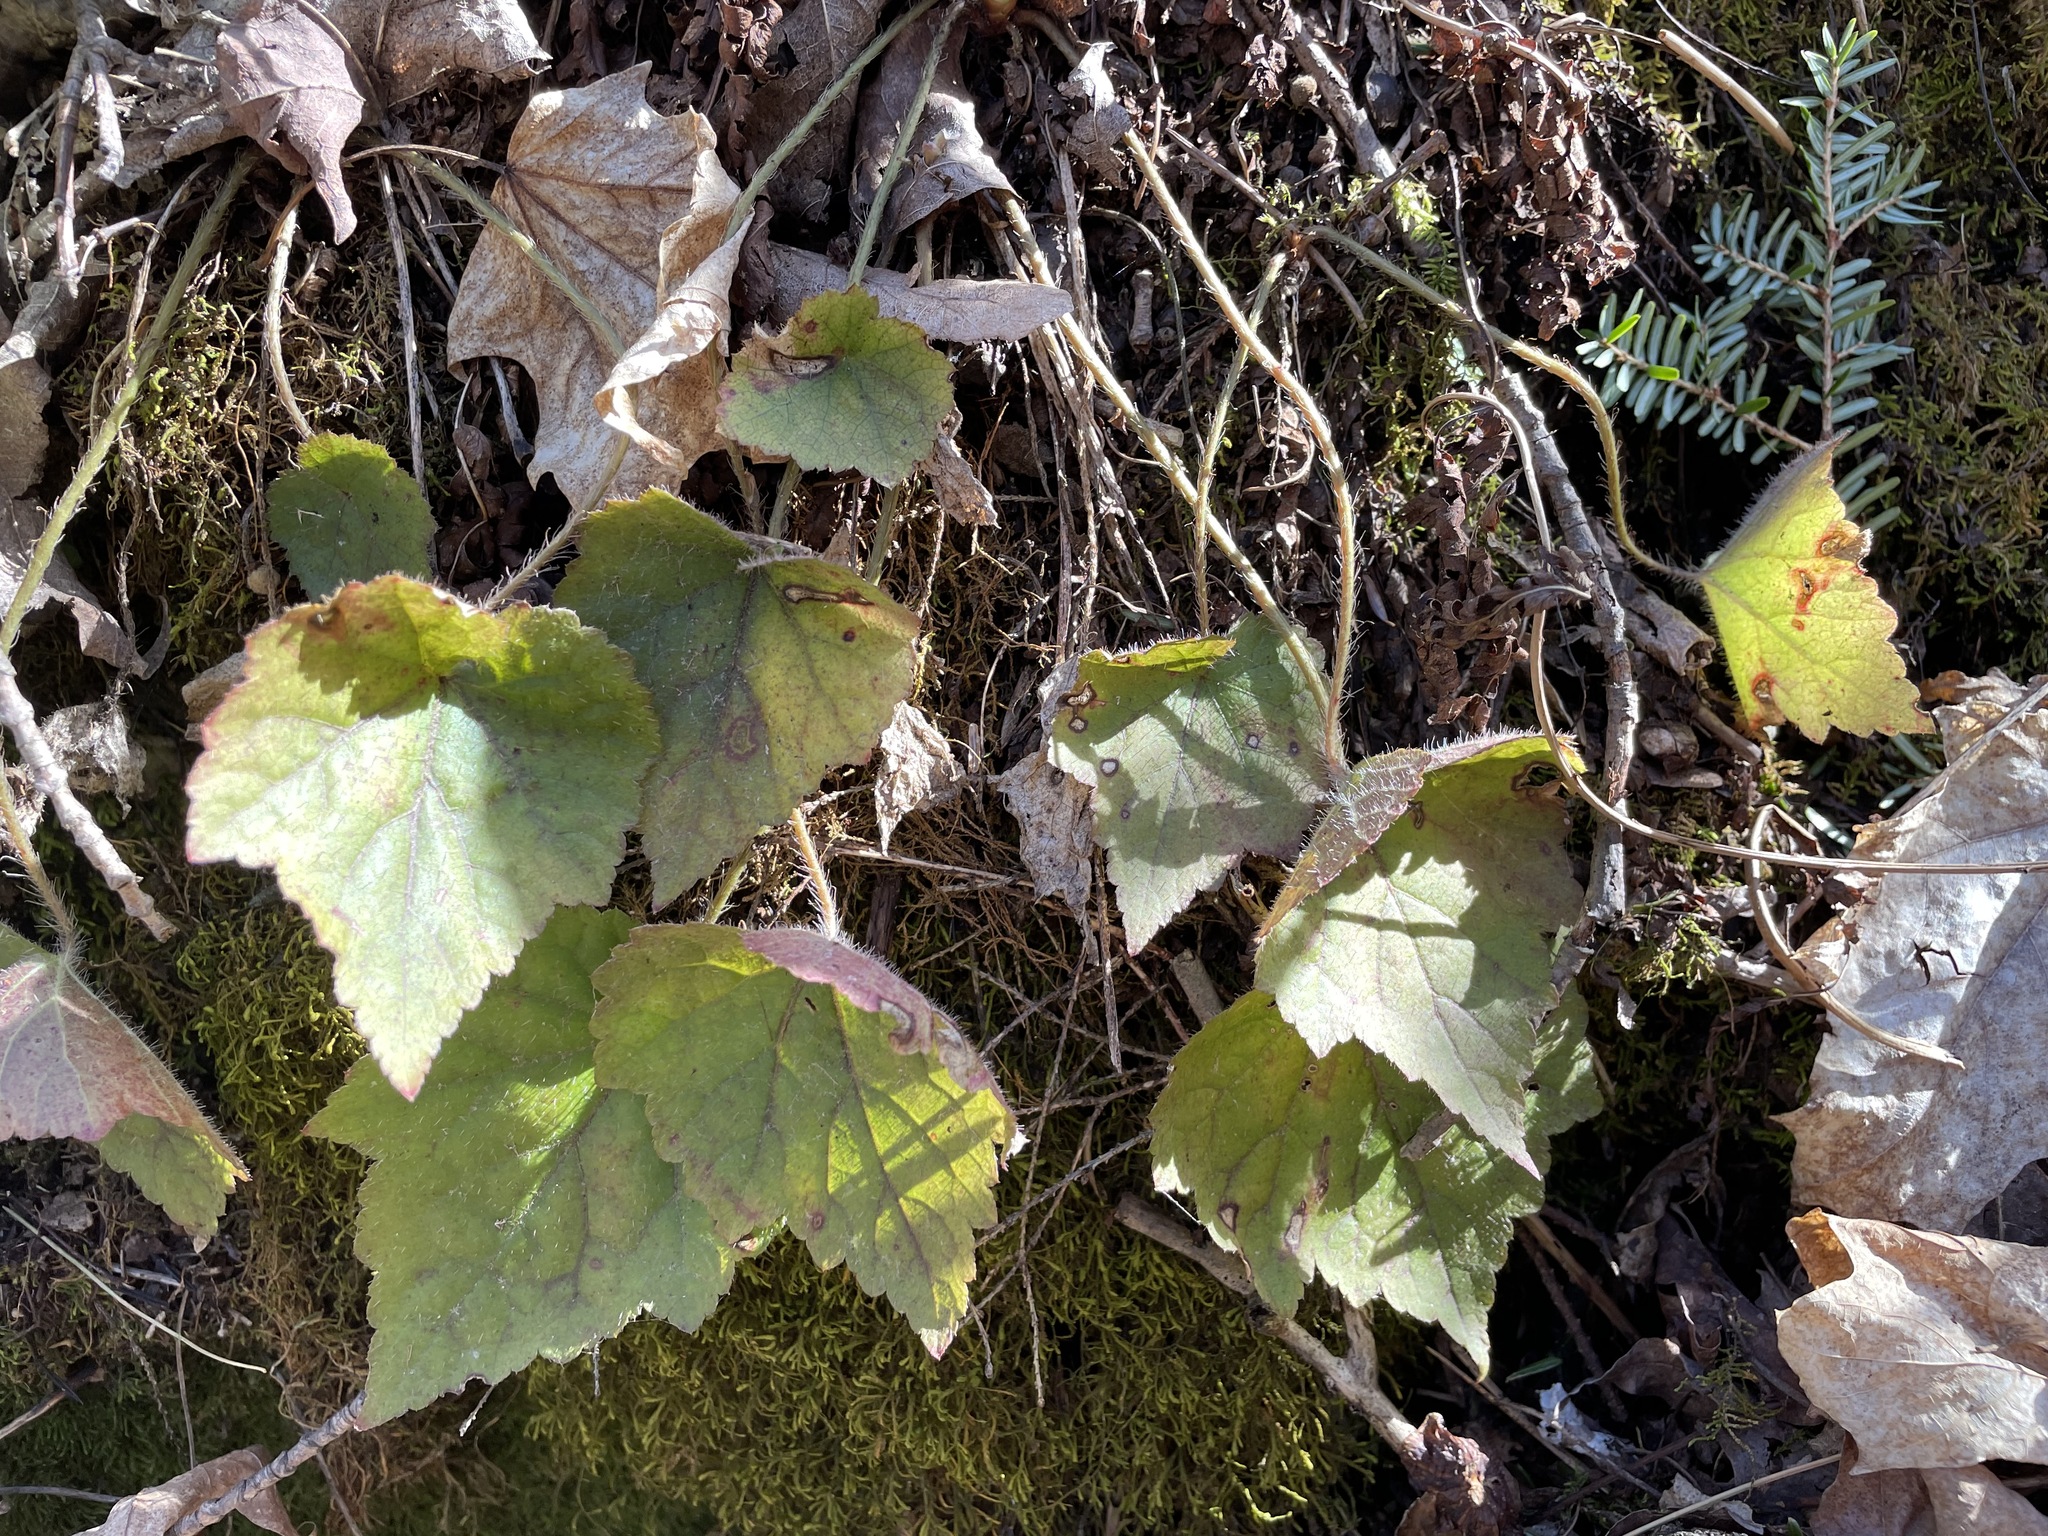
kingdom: Plantae
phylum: Tracheophyta
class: Magnoliopsida
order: Saxifragales
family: Saxifragaceae
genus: Mitella
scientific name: Mitella diphylla
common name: Coolwort
